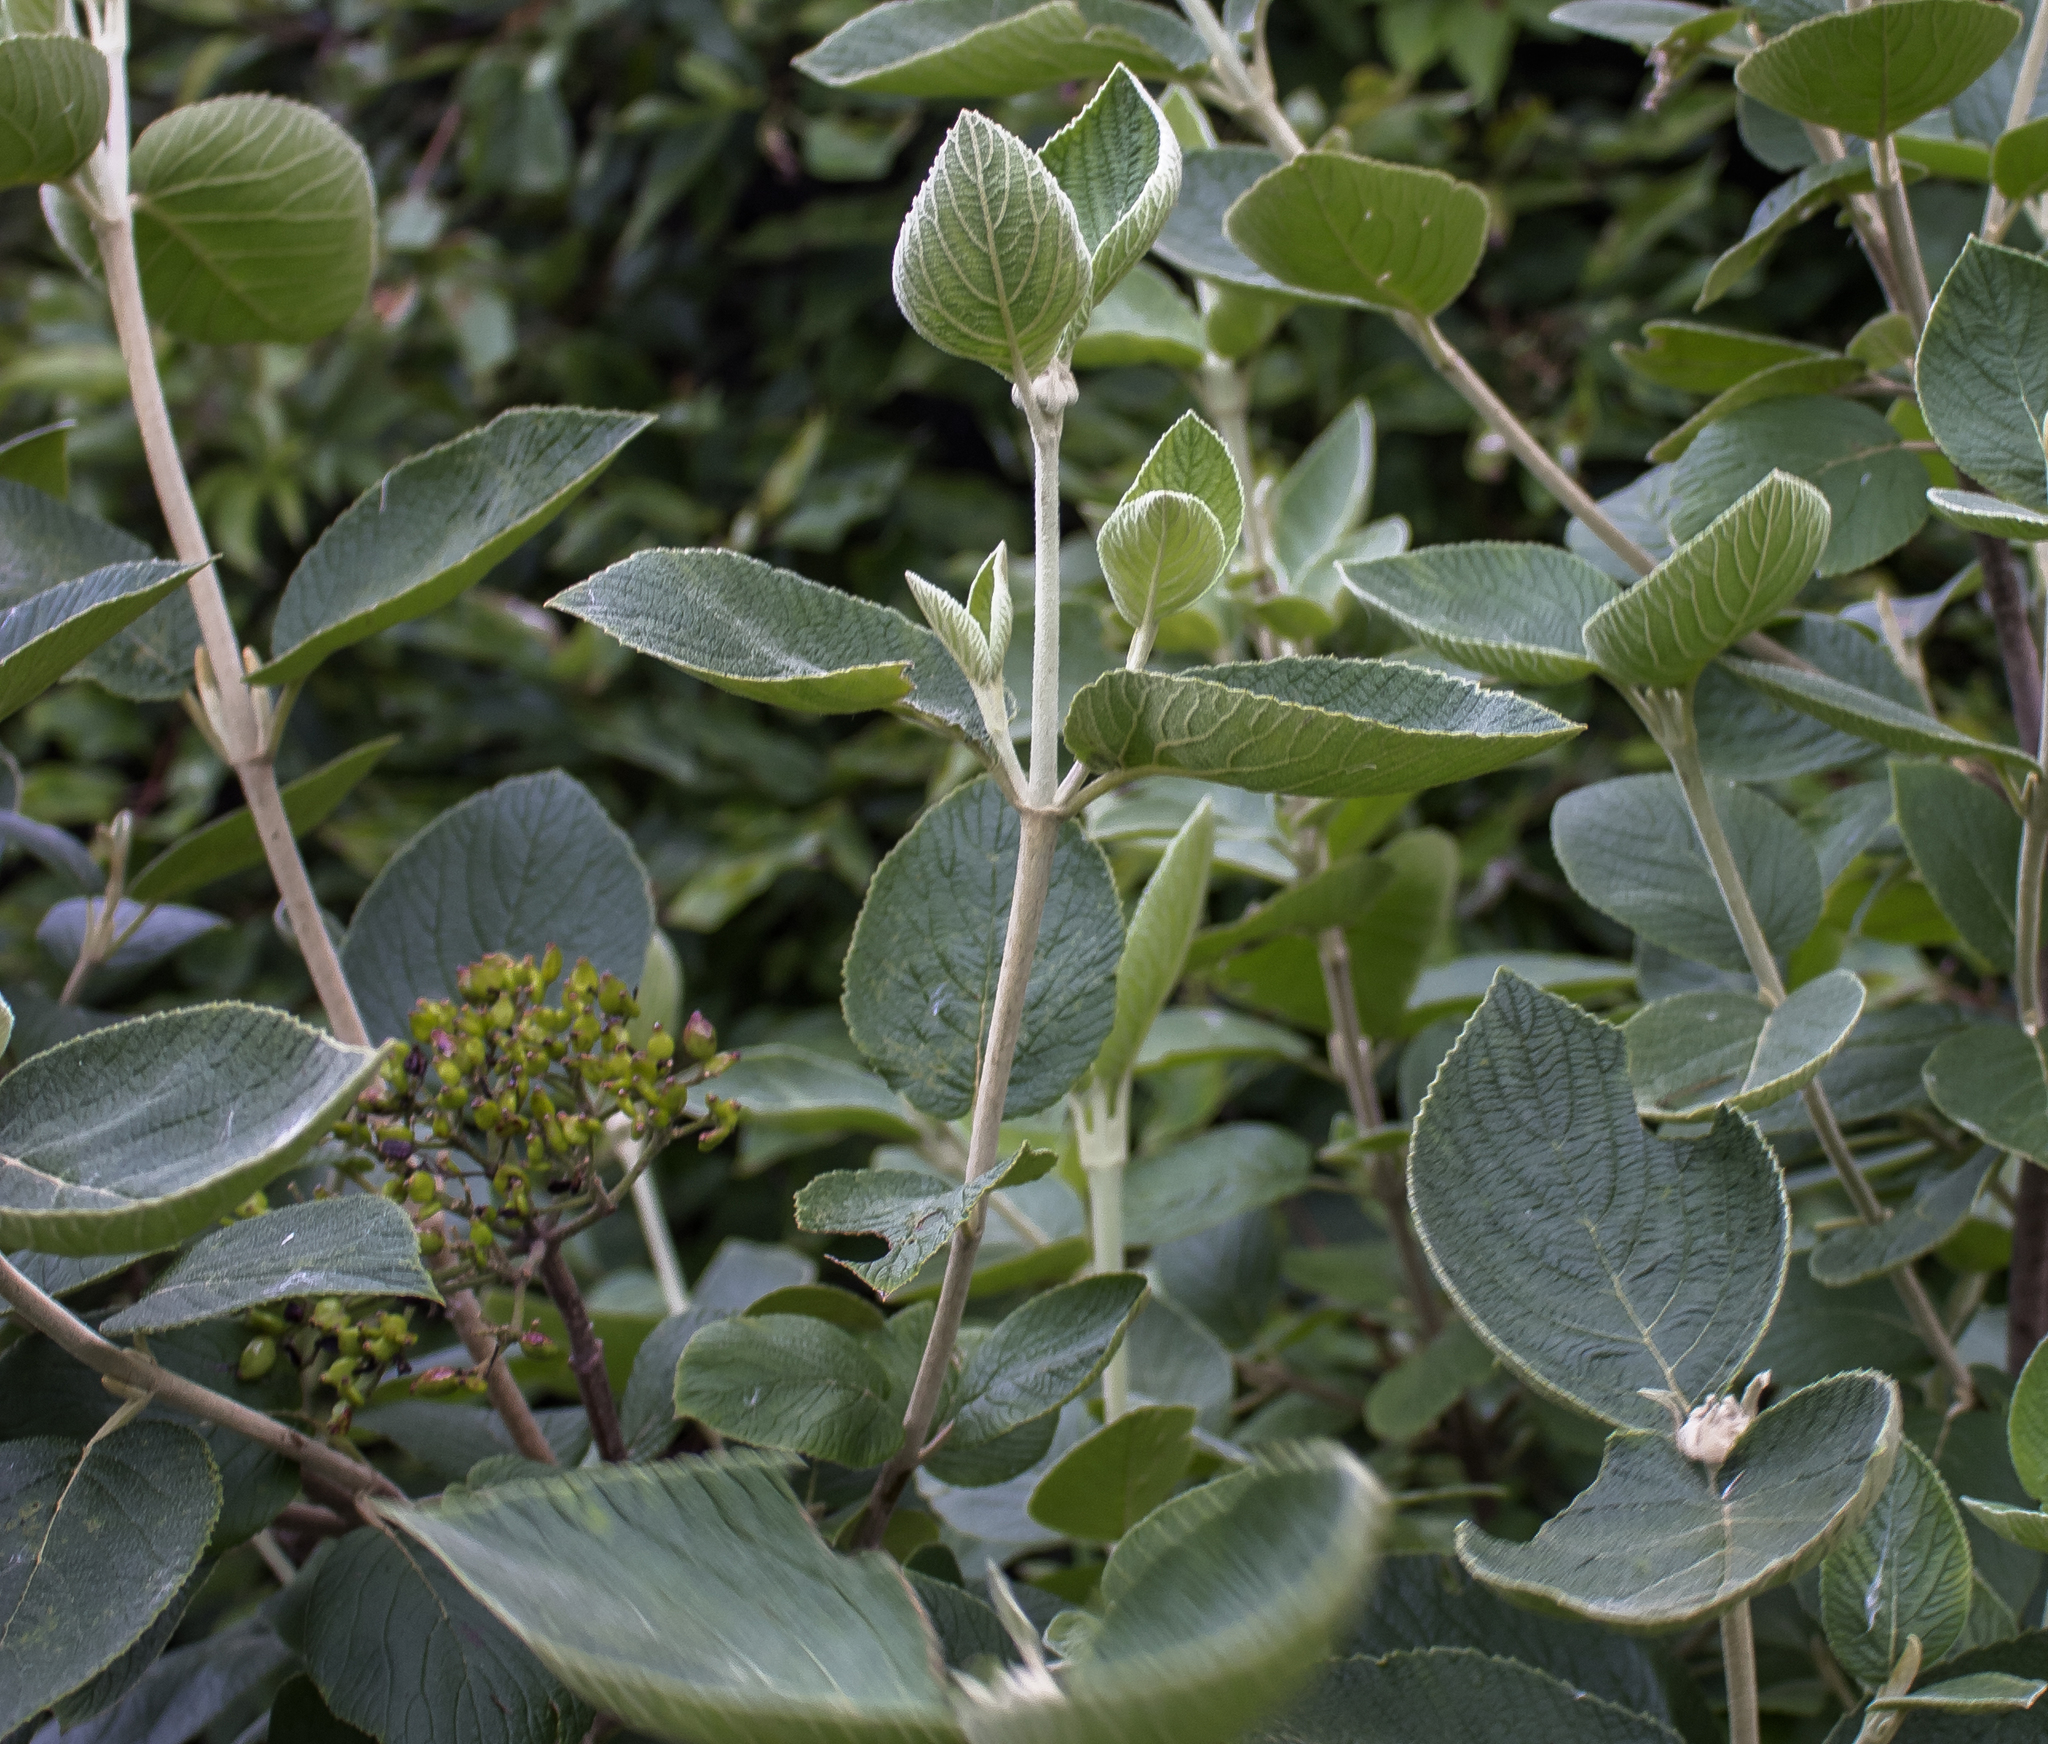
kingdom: Plantae
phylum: Tracheophyta
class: Magnoliopsida
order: Dipsacales
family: Viburnaceae
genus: Viburnum
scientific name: Viburnum lantana
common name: Wayfaring tree
